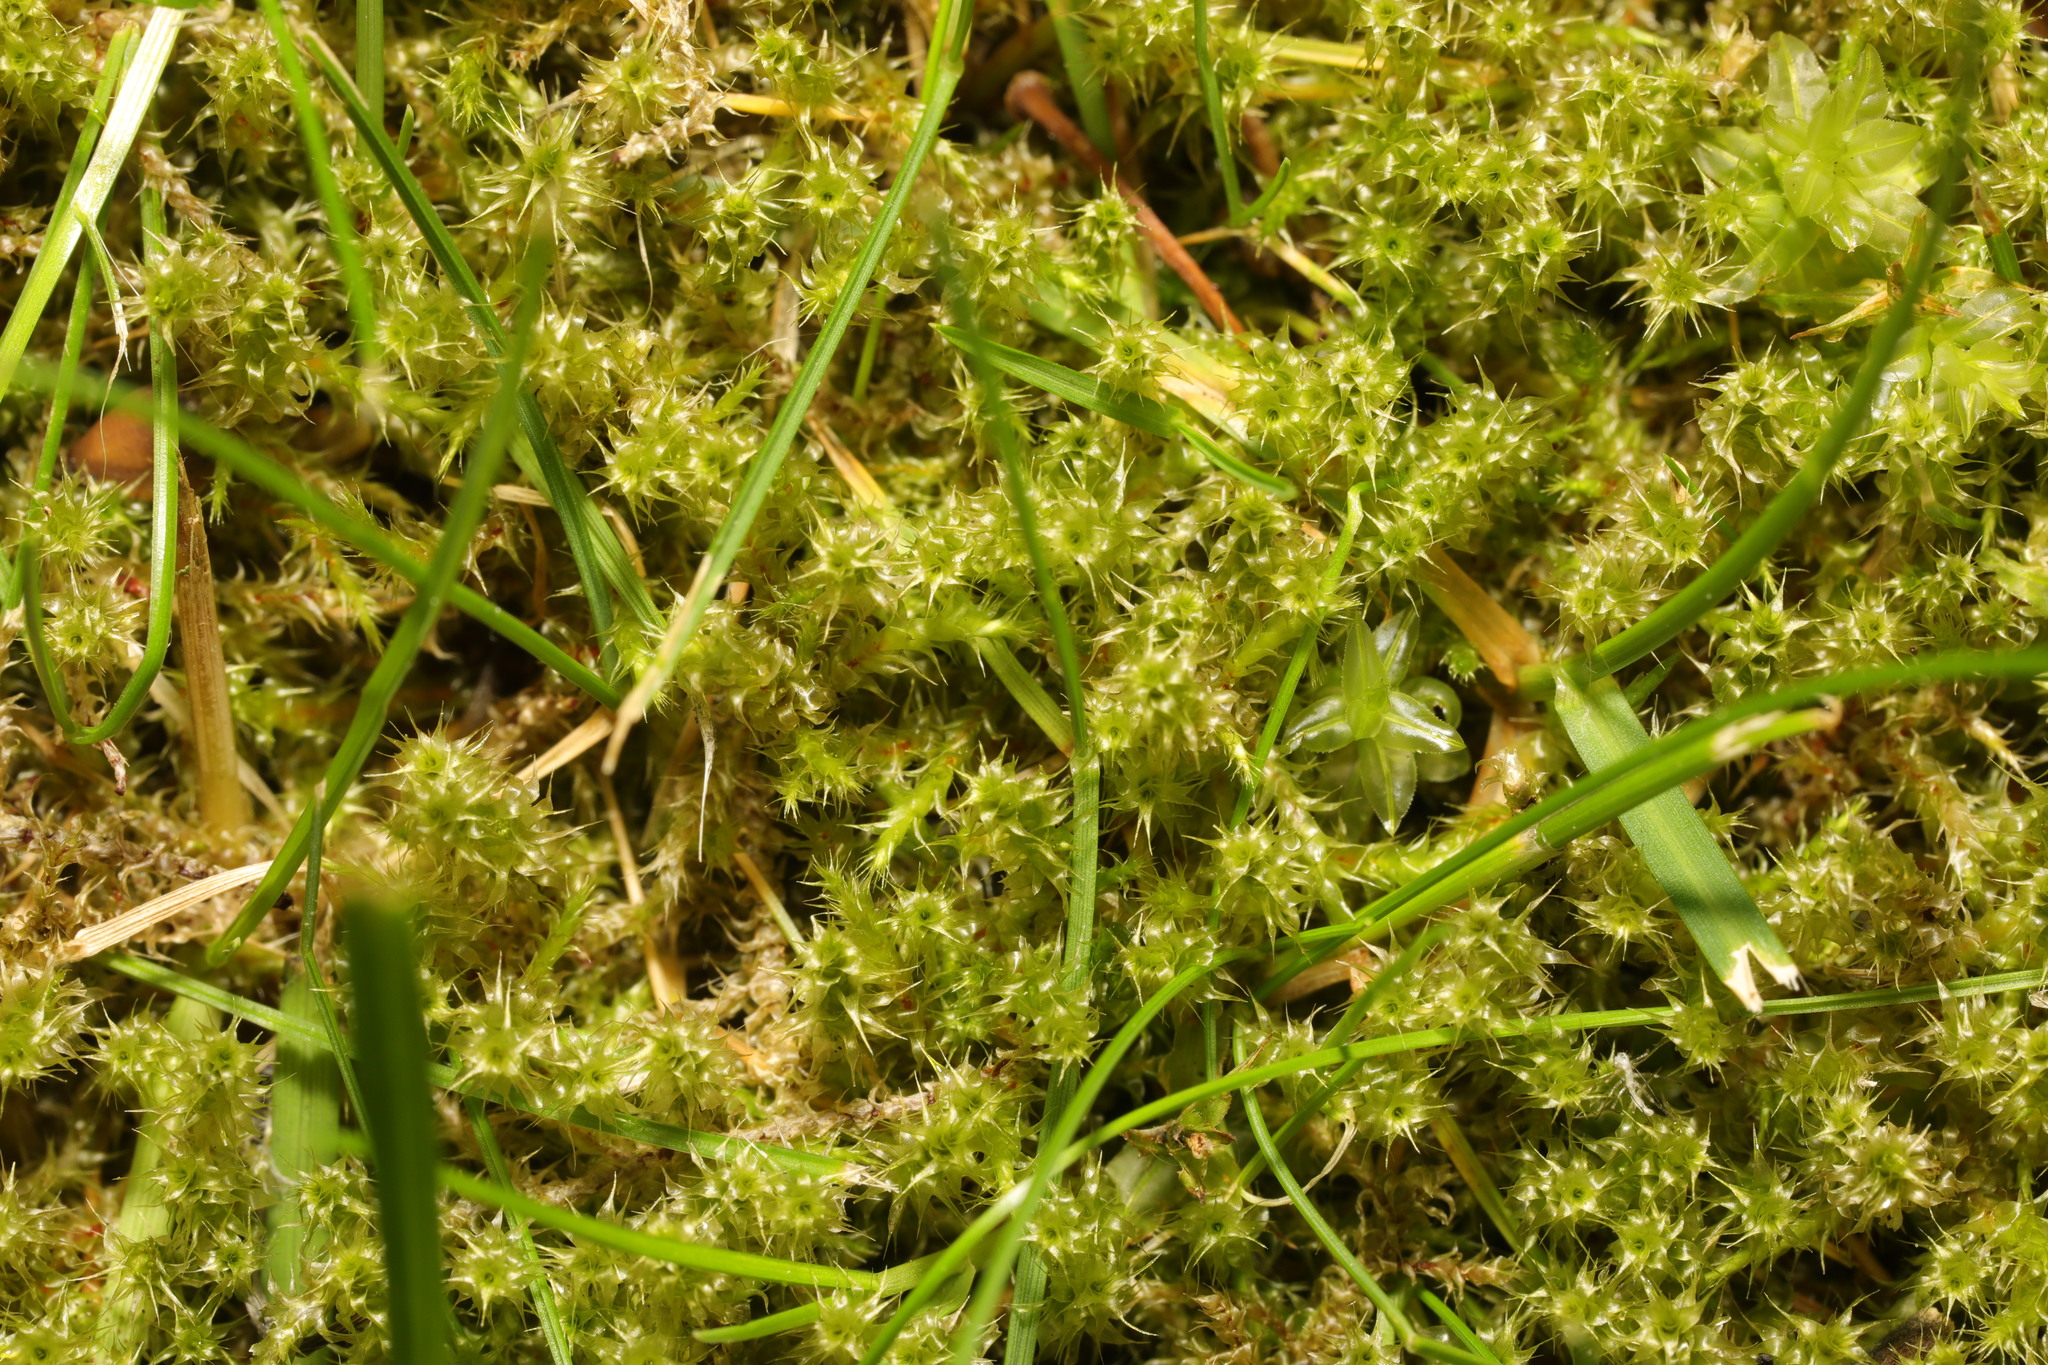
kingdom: Plantae
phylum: Bryophyta
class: Bryopsida
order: Hypnales
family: Hylocomiaceae
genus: Rhytidiadelphus
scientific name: Rhytidiadelphus squarrosus
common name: Springy turf-moss
